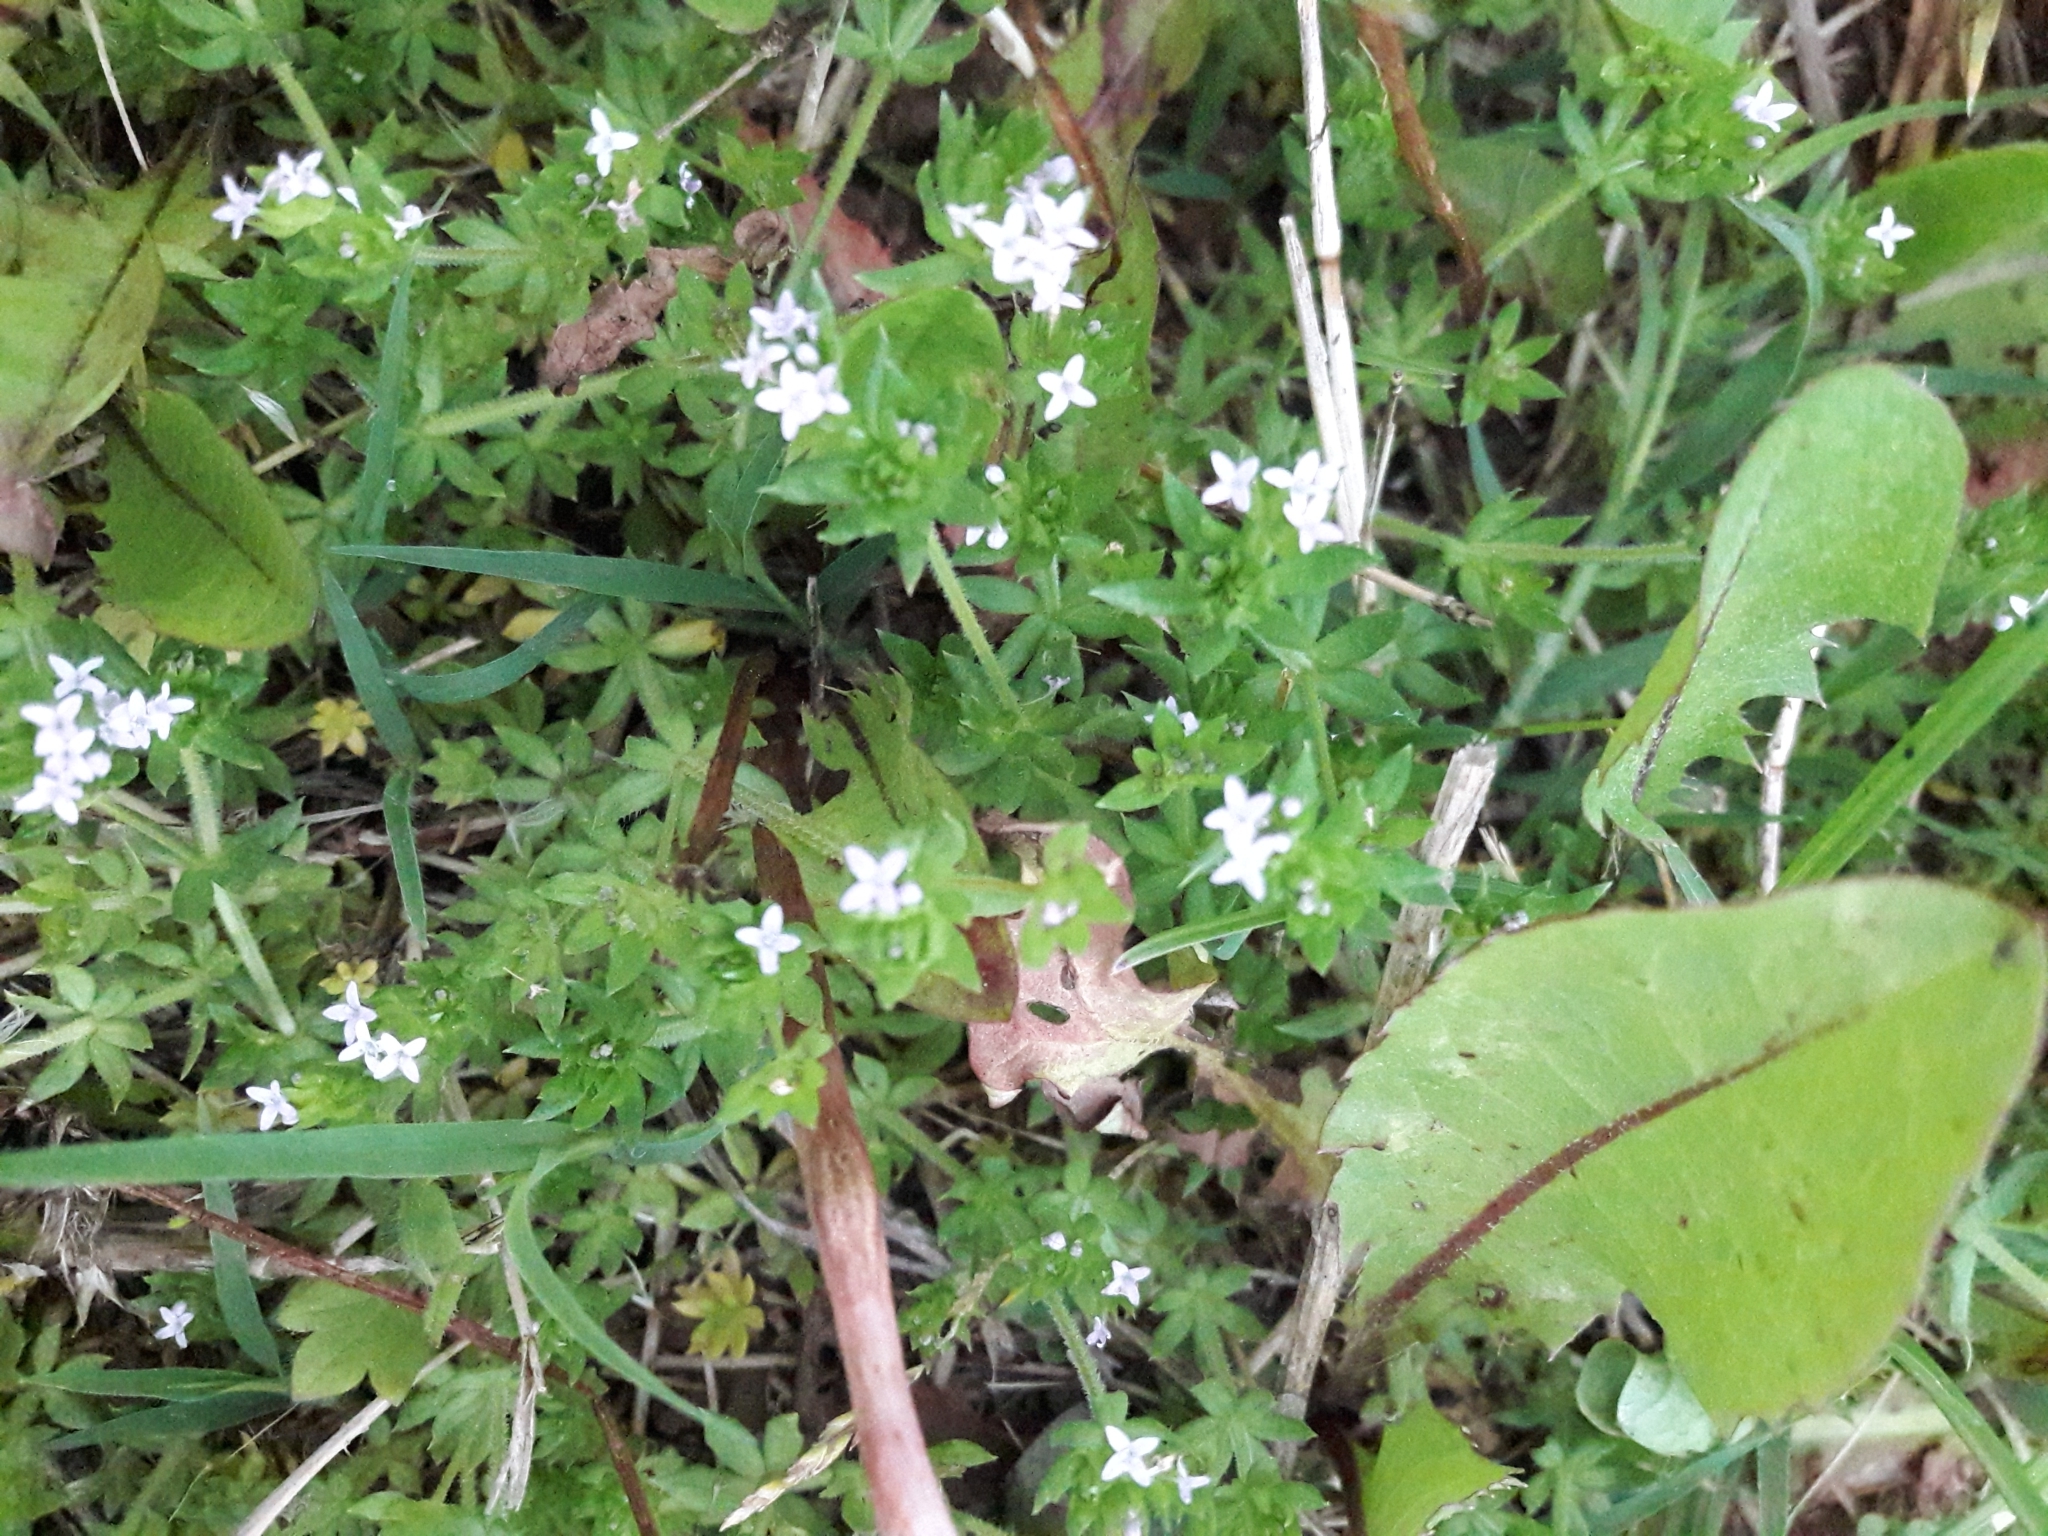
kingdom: Plantae
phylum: Tracheophyta
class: Magnoliopsida
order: Gentianales
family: Rubiaceae
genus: Sherardia
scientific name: Sherardia arvensis
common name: Field madder
